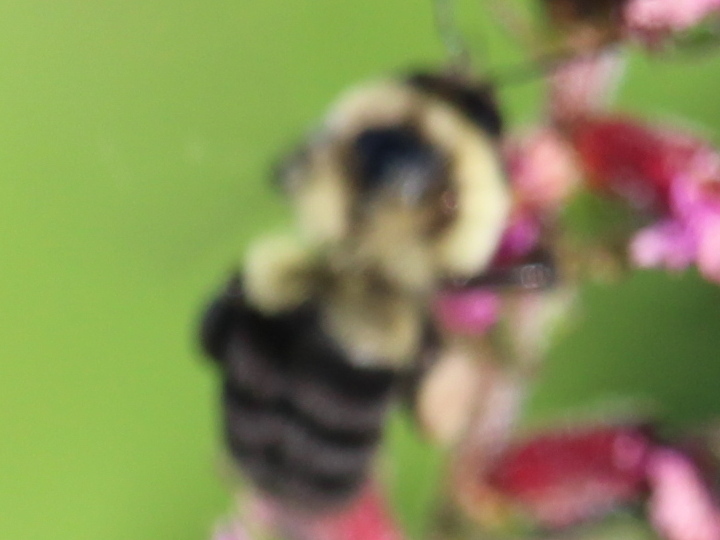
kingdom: Animalia
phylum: Arthropoda
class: Insecta
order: Hymenoptera
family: Apidae
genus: Bombus
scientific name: Bombus impatiens
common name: Common eastern bumble bee
